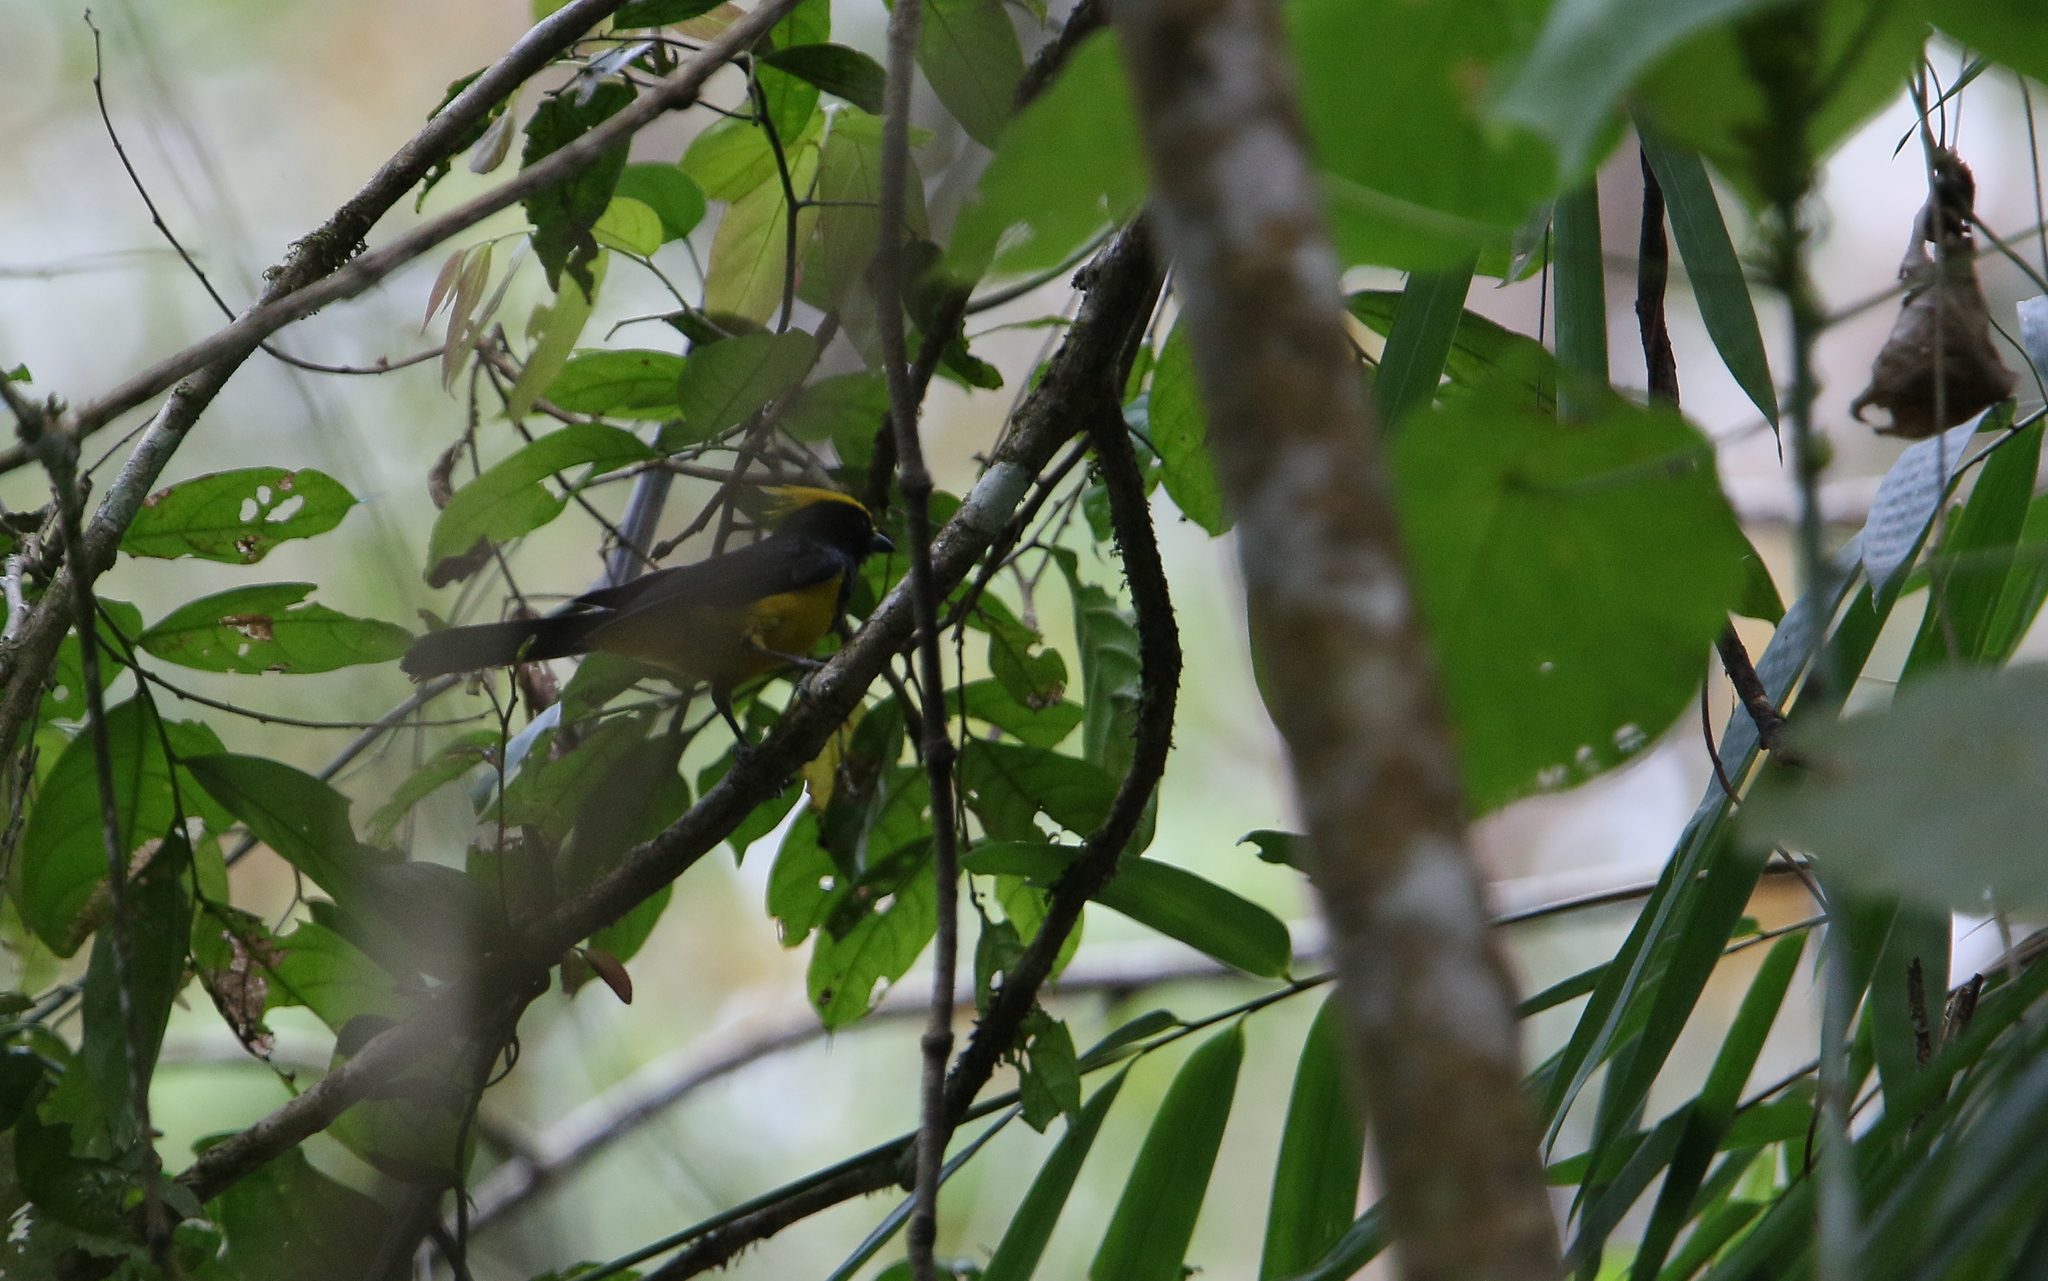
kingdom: Animalia
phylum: Chordata
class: Aves
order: Passeriformes
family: Paridae
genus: Melanochlora
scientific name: Melanochlora sultanea
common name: Sultan tit
